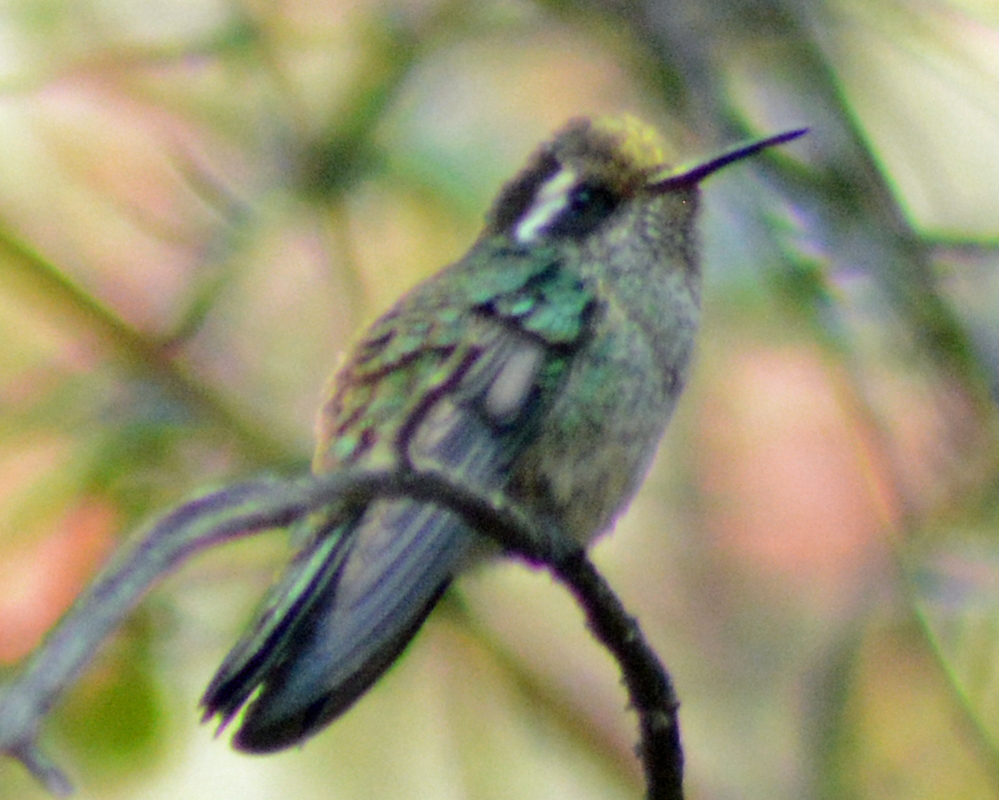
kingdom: Animalia
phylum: Chordata
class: Aves
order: Apodiformes
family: Trochilidae
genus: Basilinna
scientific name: Basilinna leucotis
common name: White-eared hummingbird
